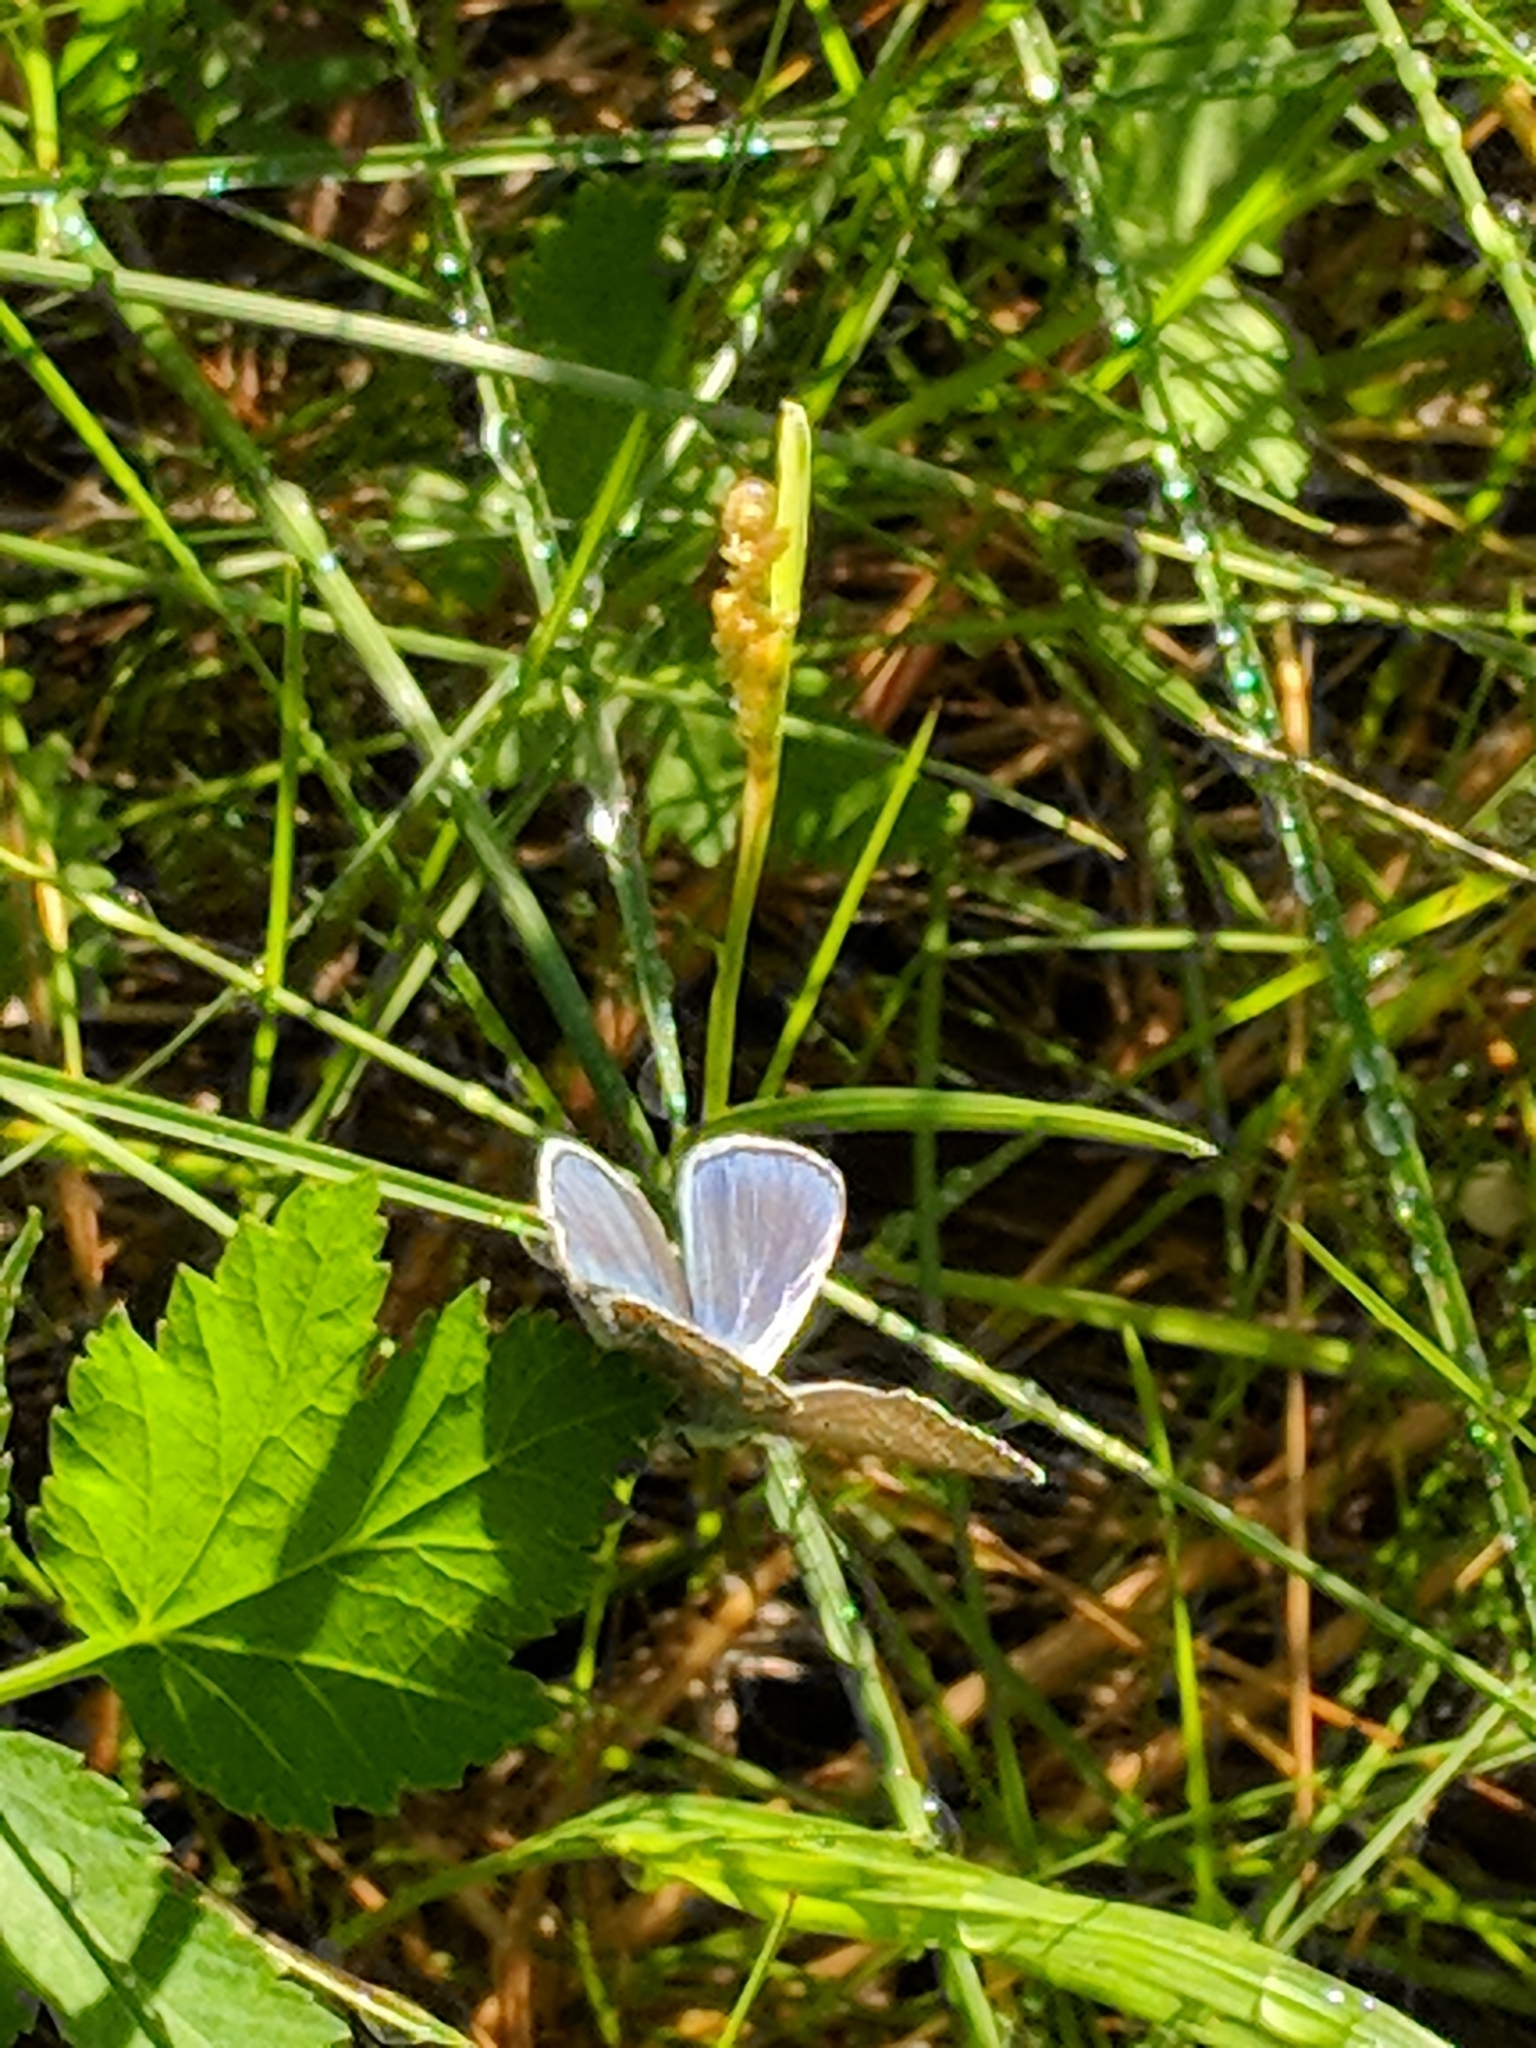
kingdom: Animalia
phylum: Arthropoda
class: Insecta
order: Lepidoptera
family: Lycaenidae
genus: Polyommatus
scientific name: Polyommatus icarus
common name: Common blue
